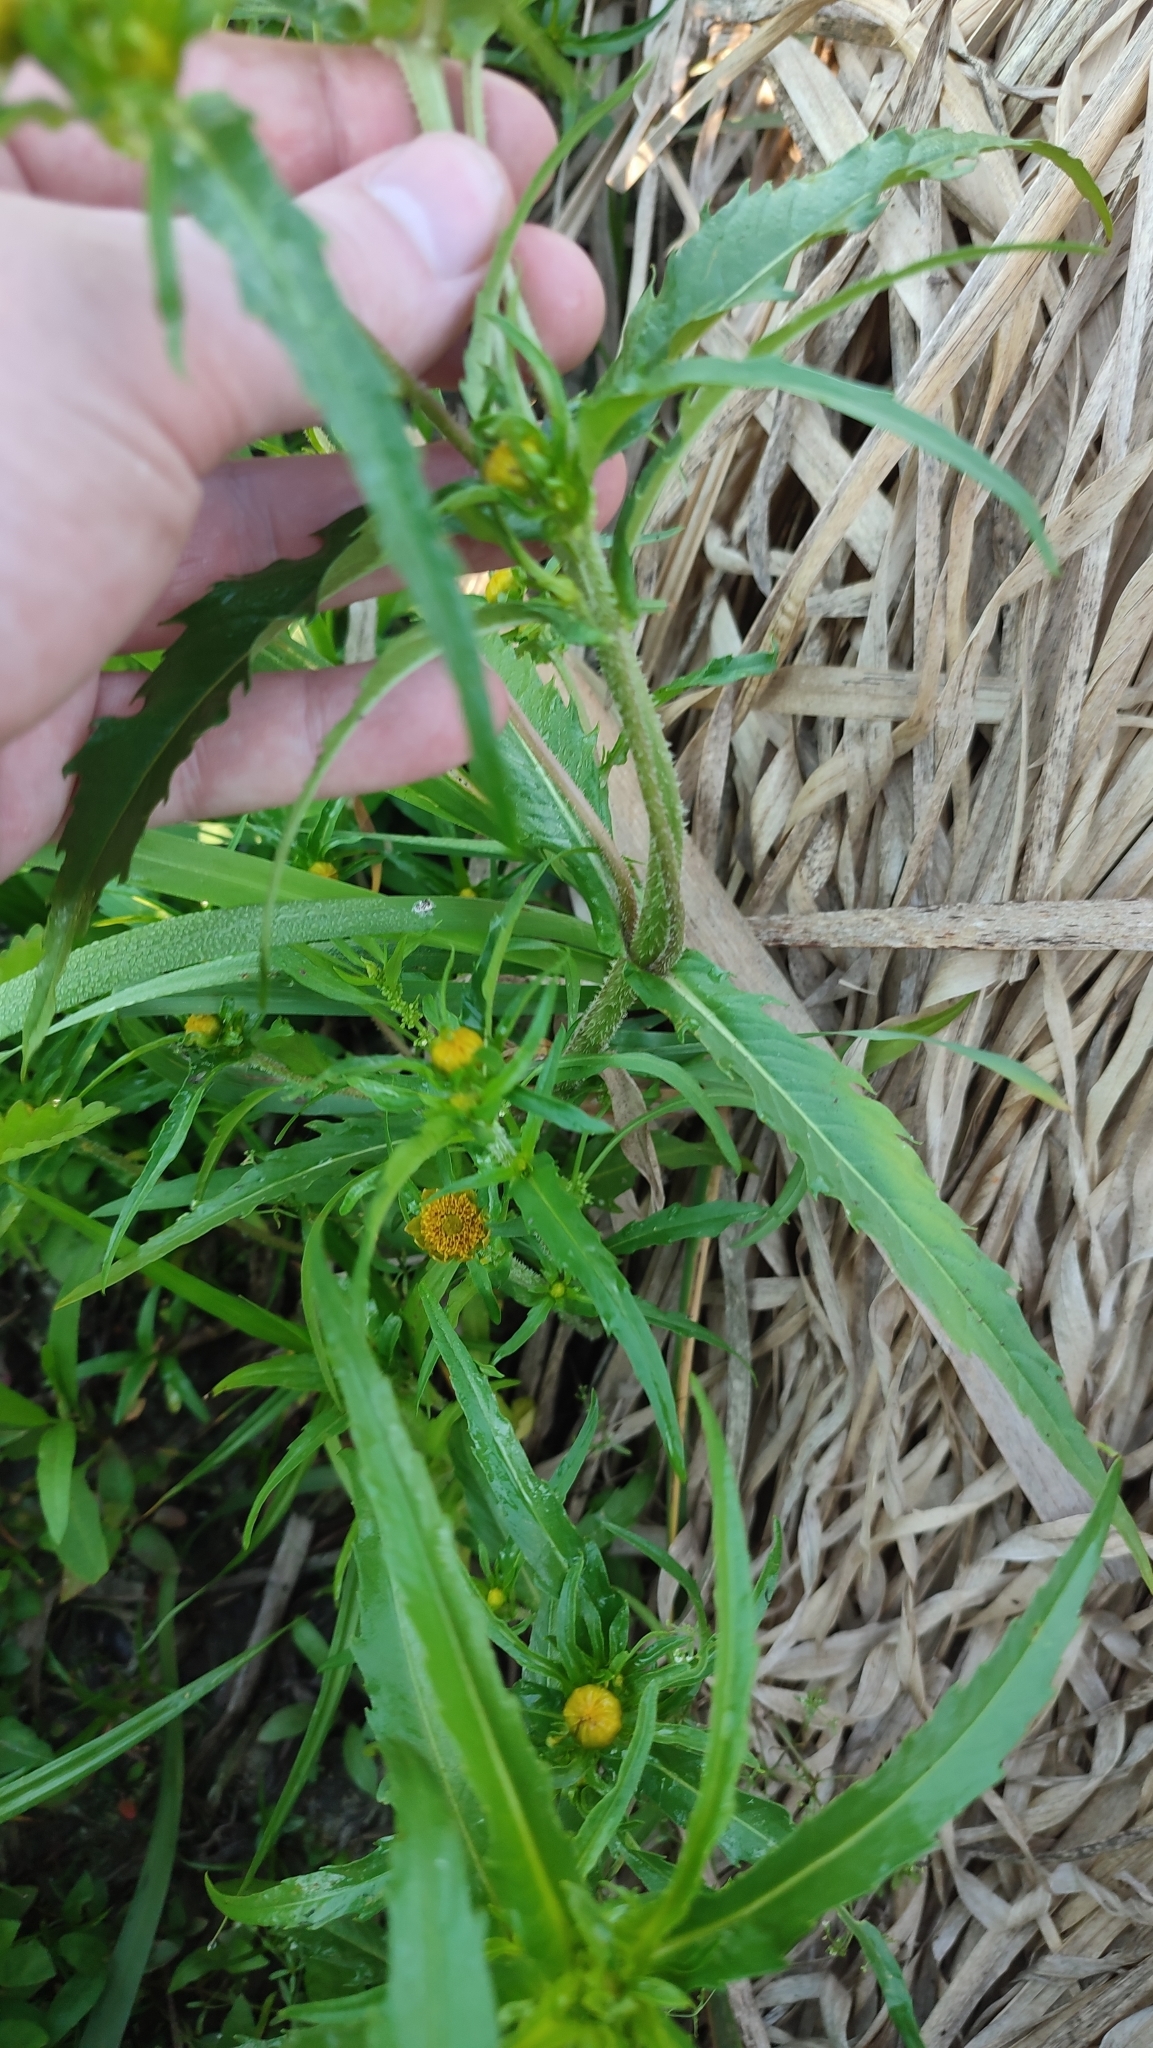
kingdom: Plantae
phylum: Tracheophyta
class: Magnoliopsida
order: Asterales
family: Asteraceae
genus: Bidens
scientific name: Bidens cernua
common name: Nodding bur-marigold
